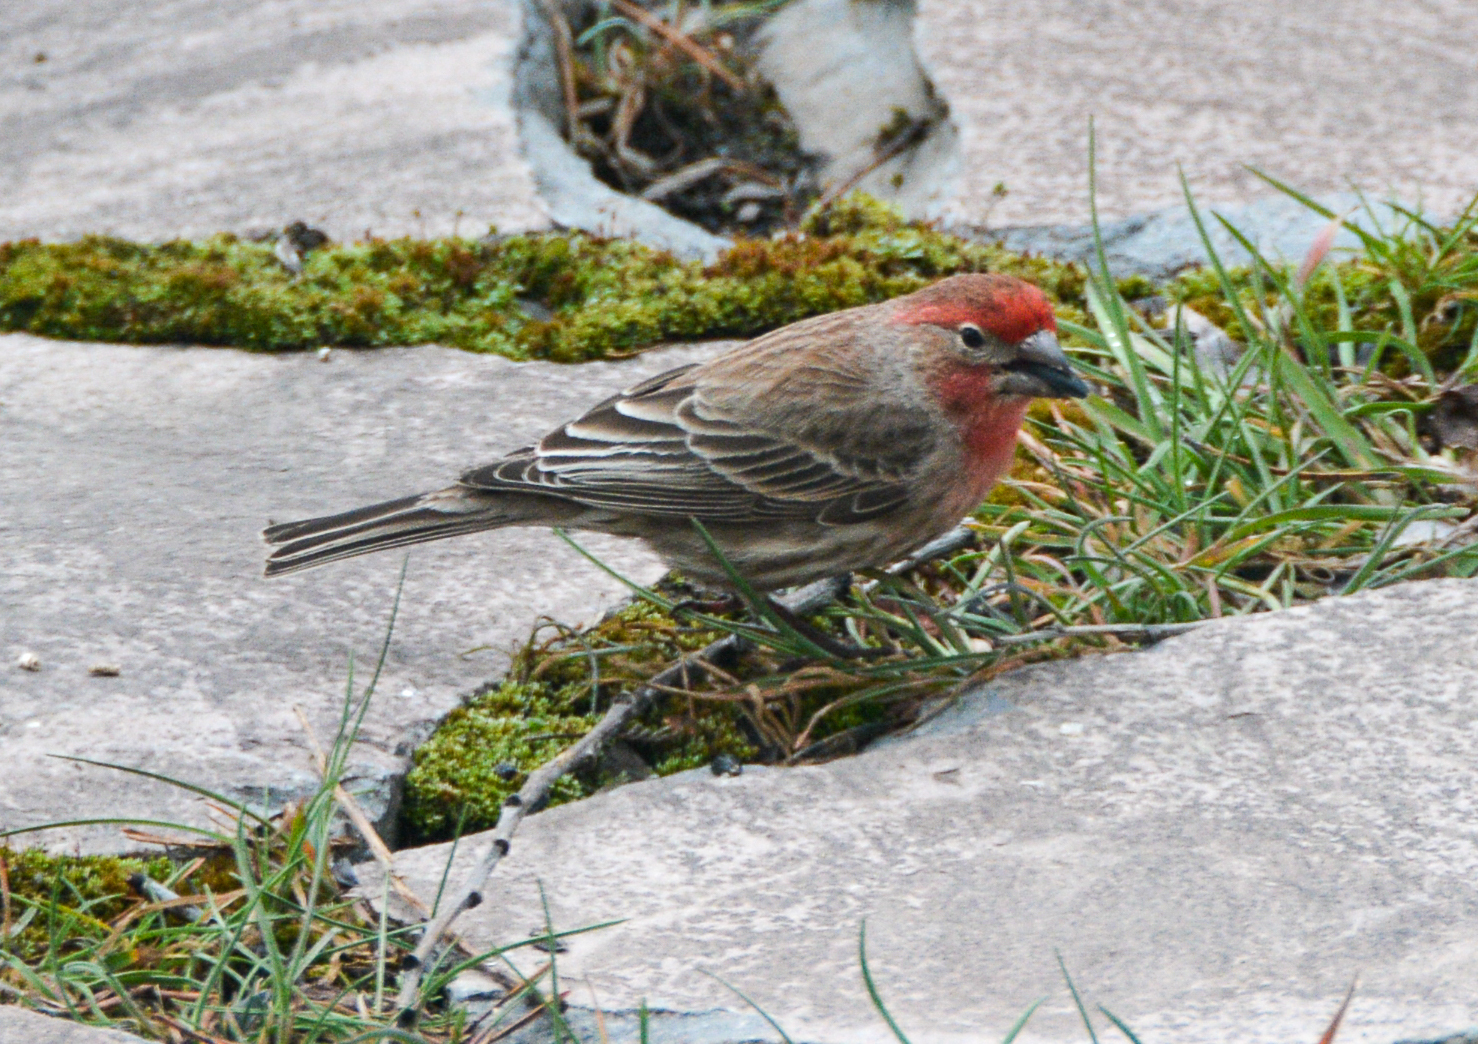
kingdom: Animalia
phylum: Chordata
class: Aves
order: Passeriformes
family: Fringillidae
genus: Haemorhous
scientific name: Haemorhous mexicanus
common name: House finch
